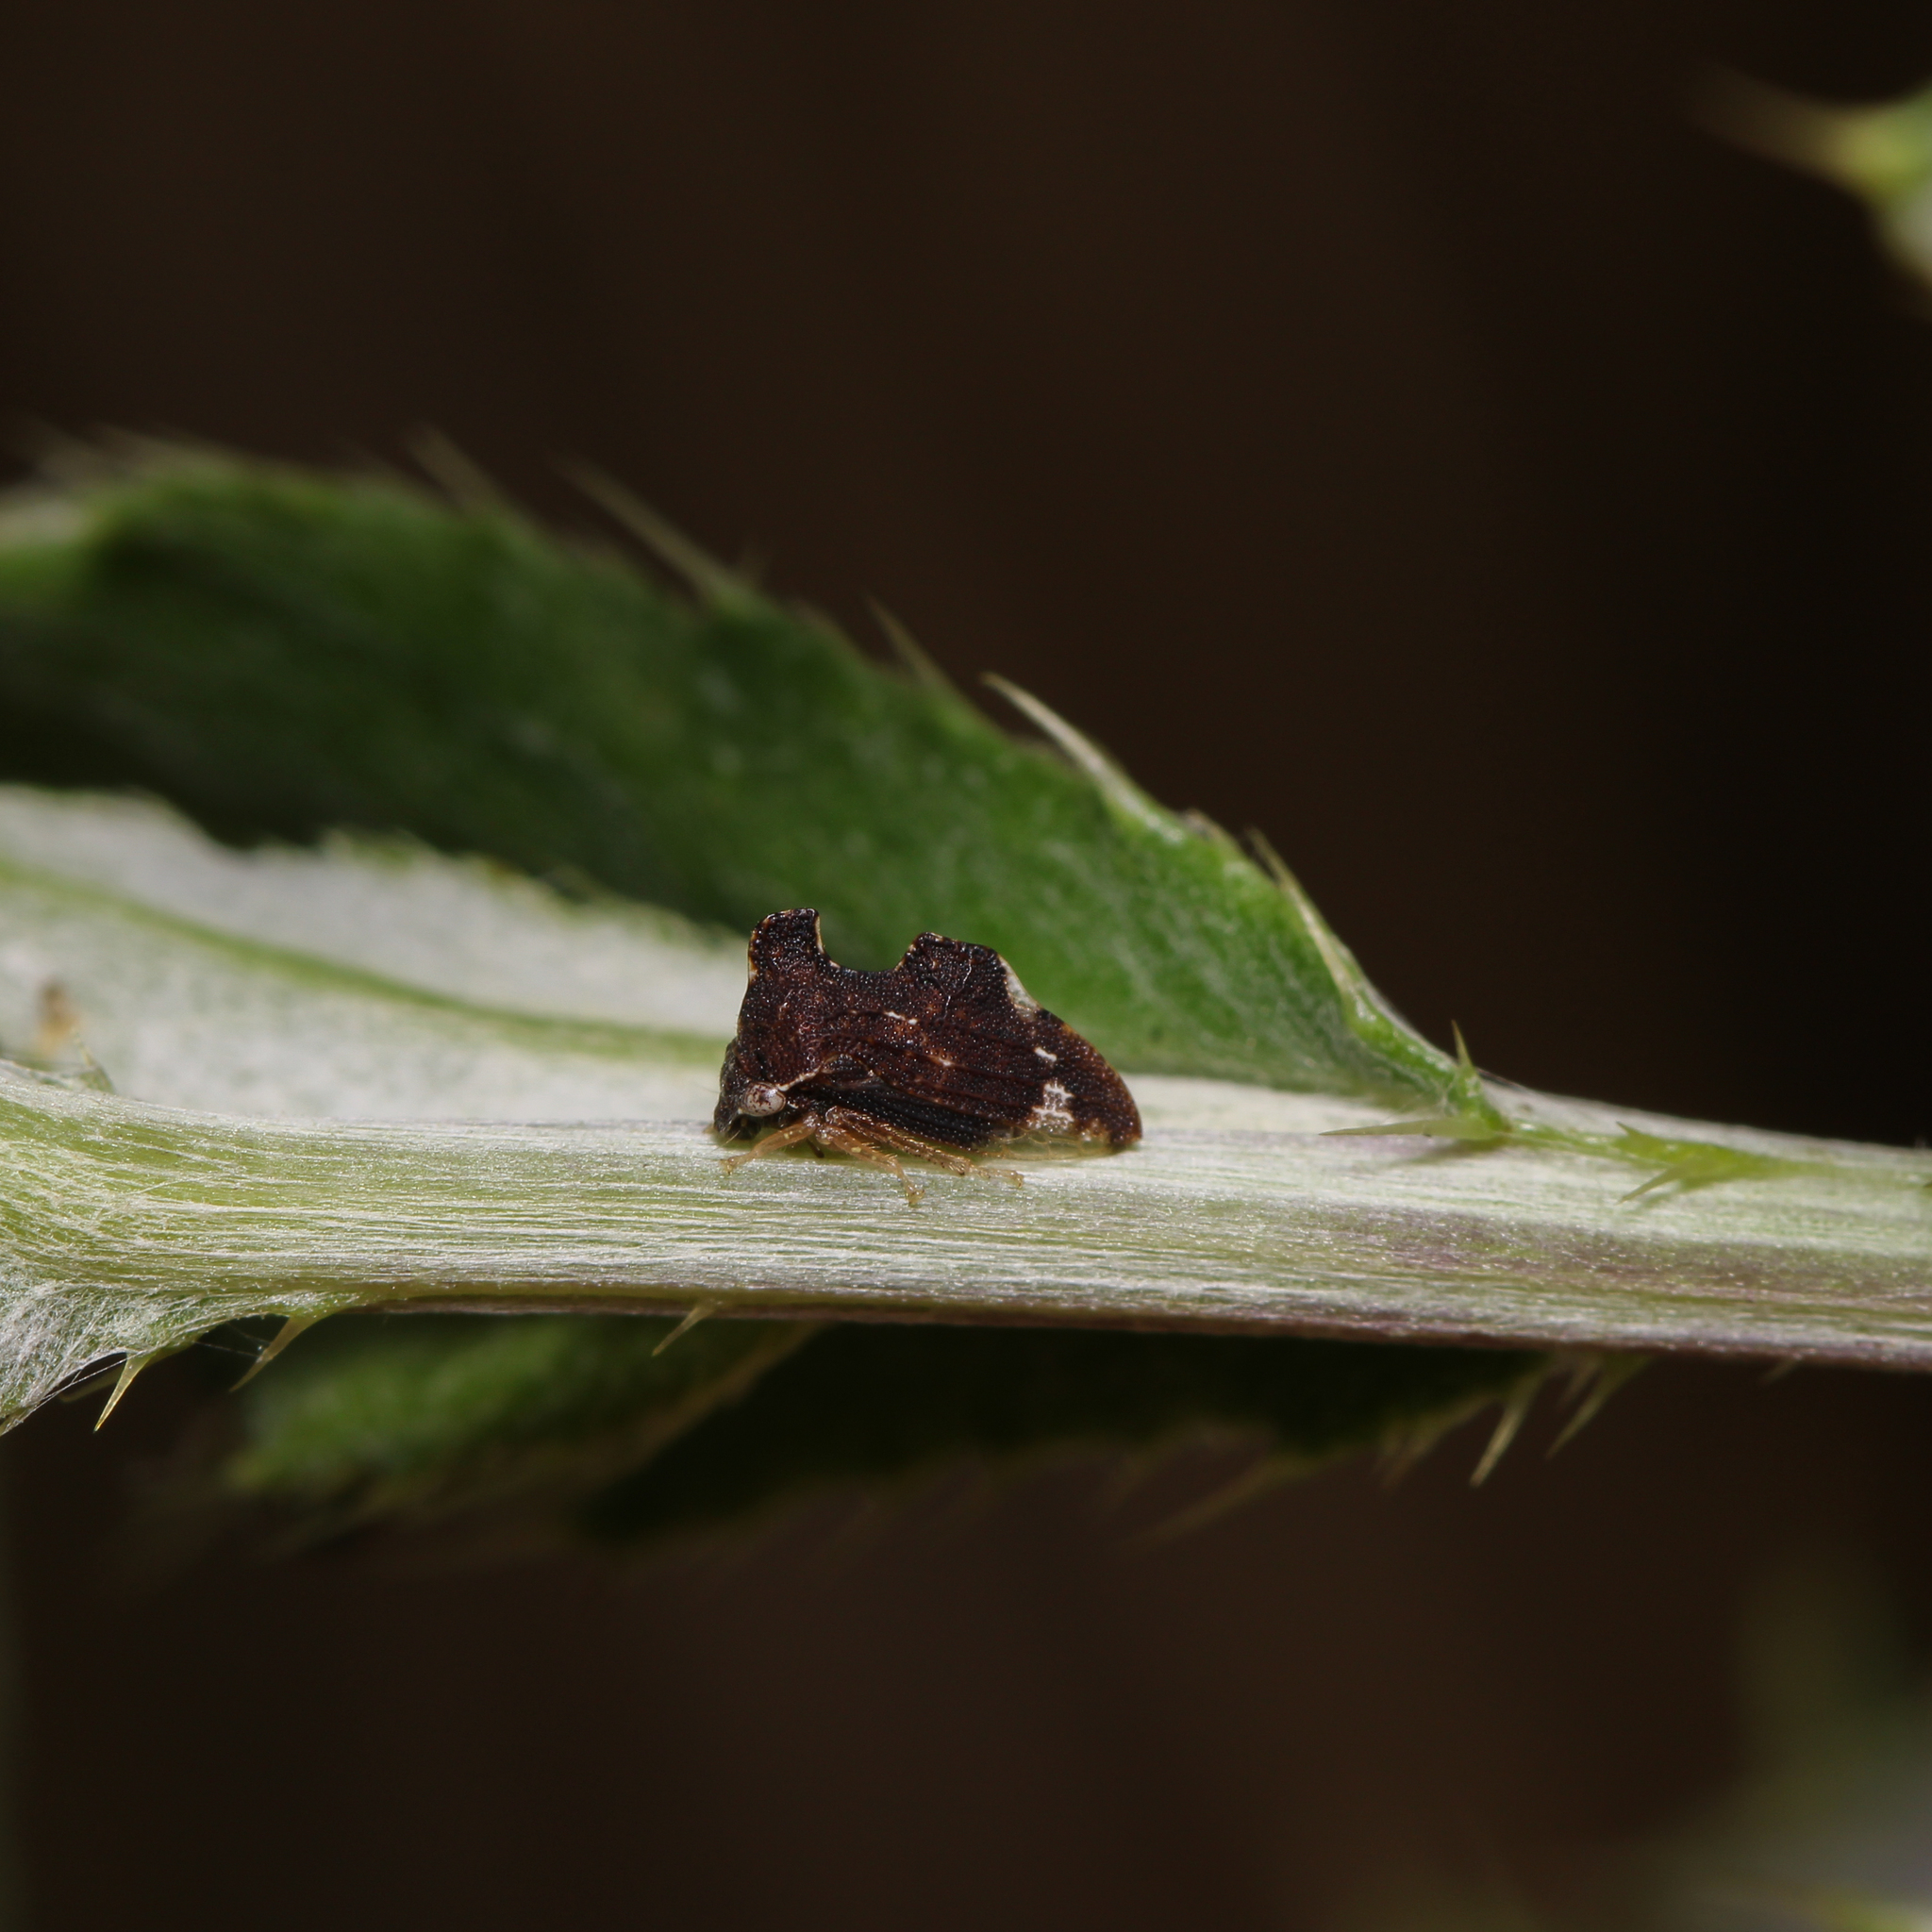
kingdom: Animalia
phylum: Arthropoda
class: Insecta
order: Hemiptera
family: Membracidae
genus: Entylia
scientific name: Entylia carinata
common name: Keeled treehopper
